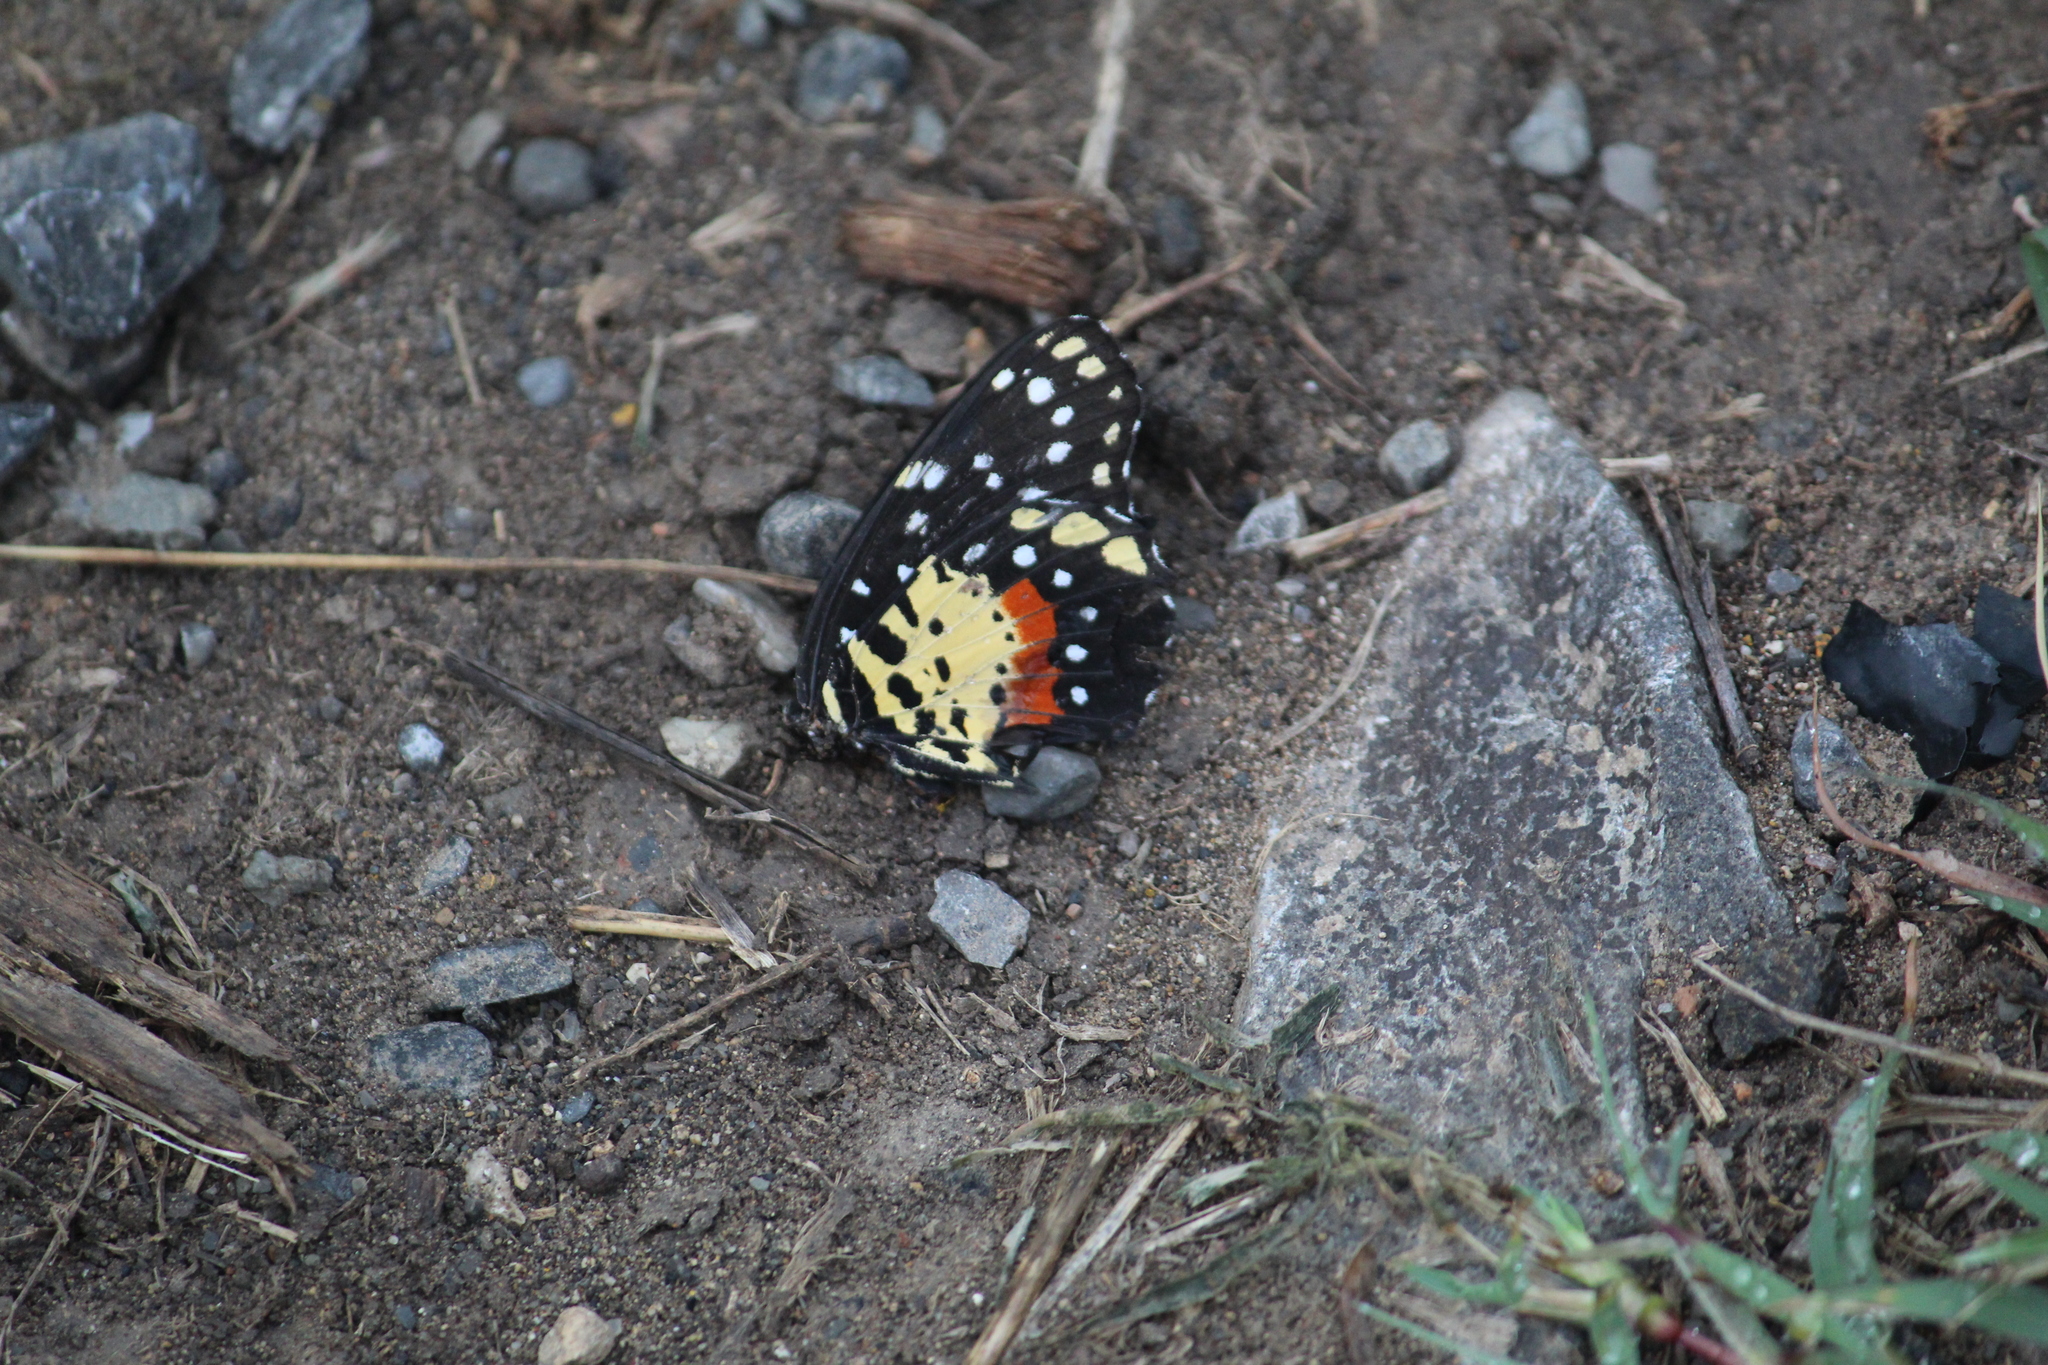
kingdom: Animalia
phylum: Arthropoda
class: Insecta
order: Lepidoptera
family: Nymphalidae
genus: Chlosyne
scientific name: Chlosyne janais
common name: Crimson patch
